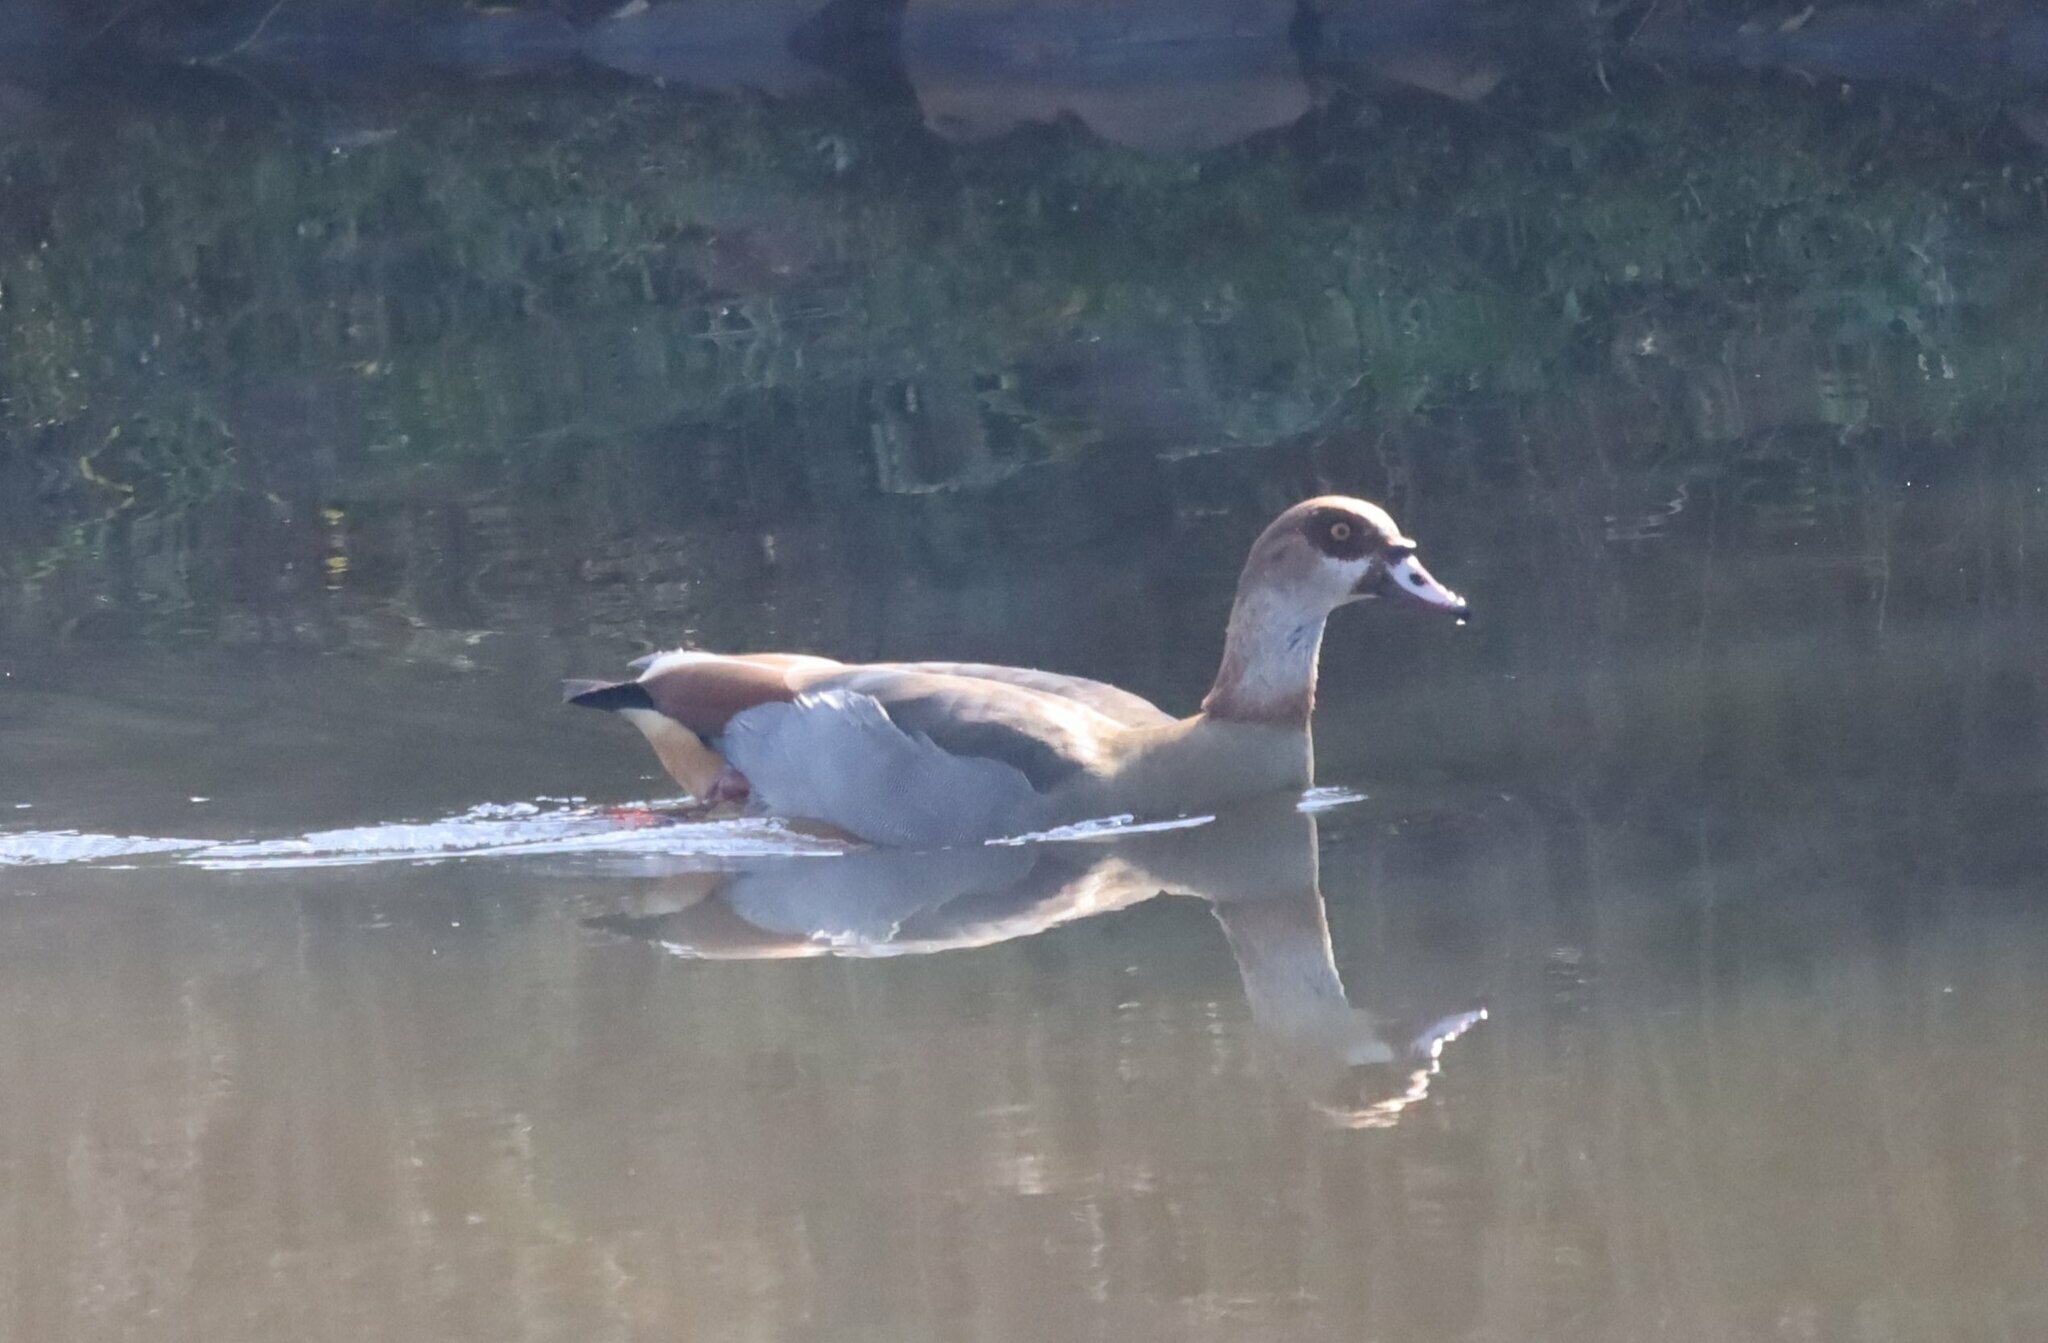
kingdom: Animalia
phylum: Chordata
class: Aves
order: Anseriformes
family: Anatidae
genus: Alopochen
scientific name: Alopochen aegyptiaca
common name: Egyptian goose
